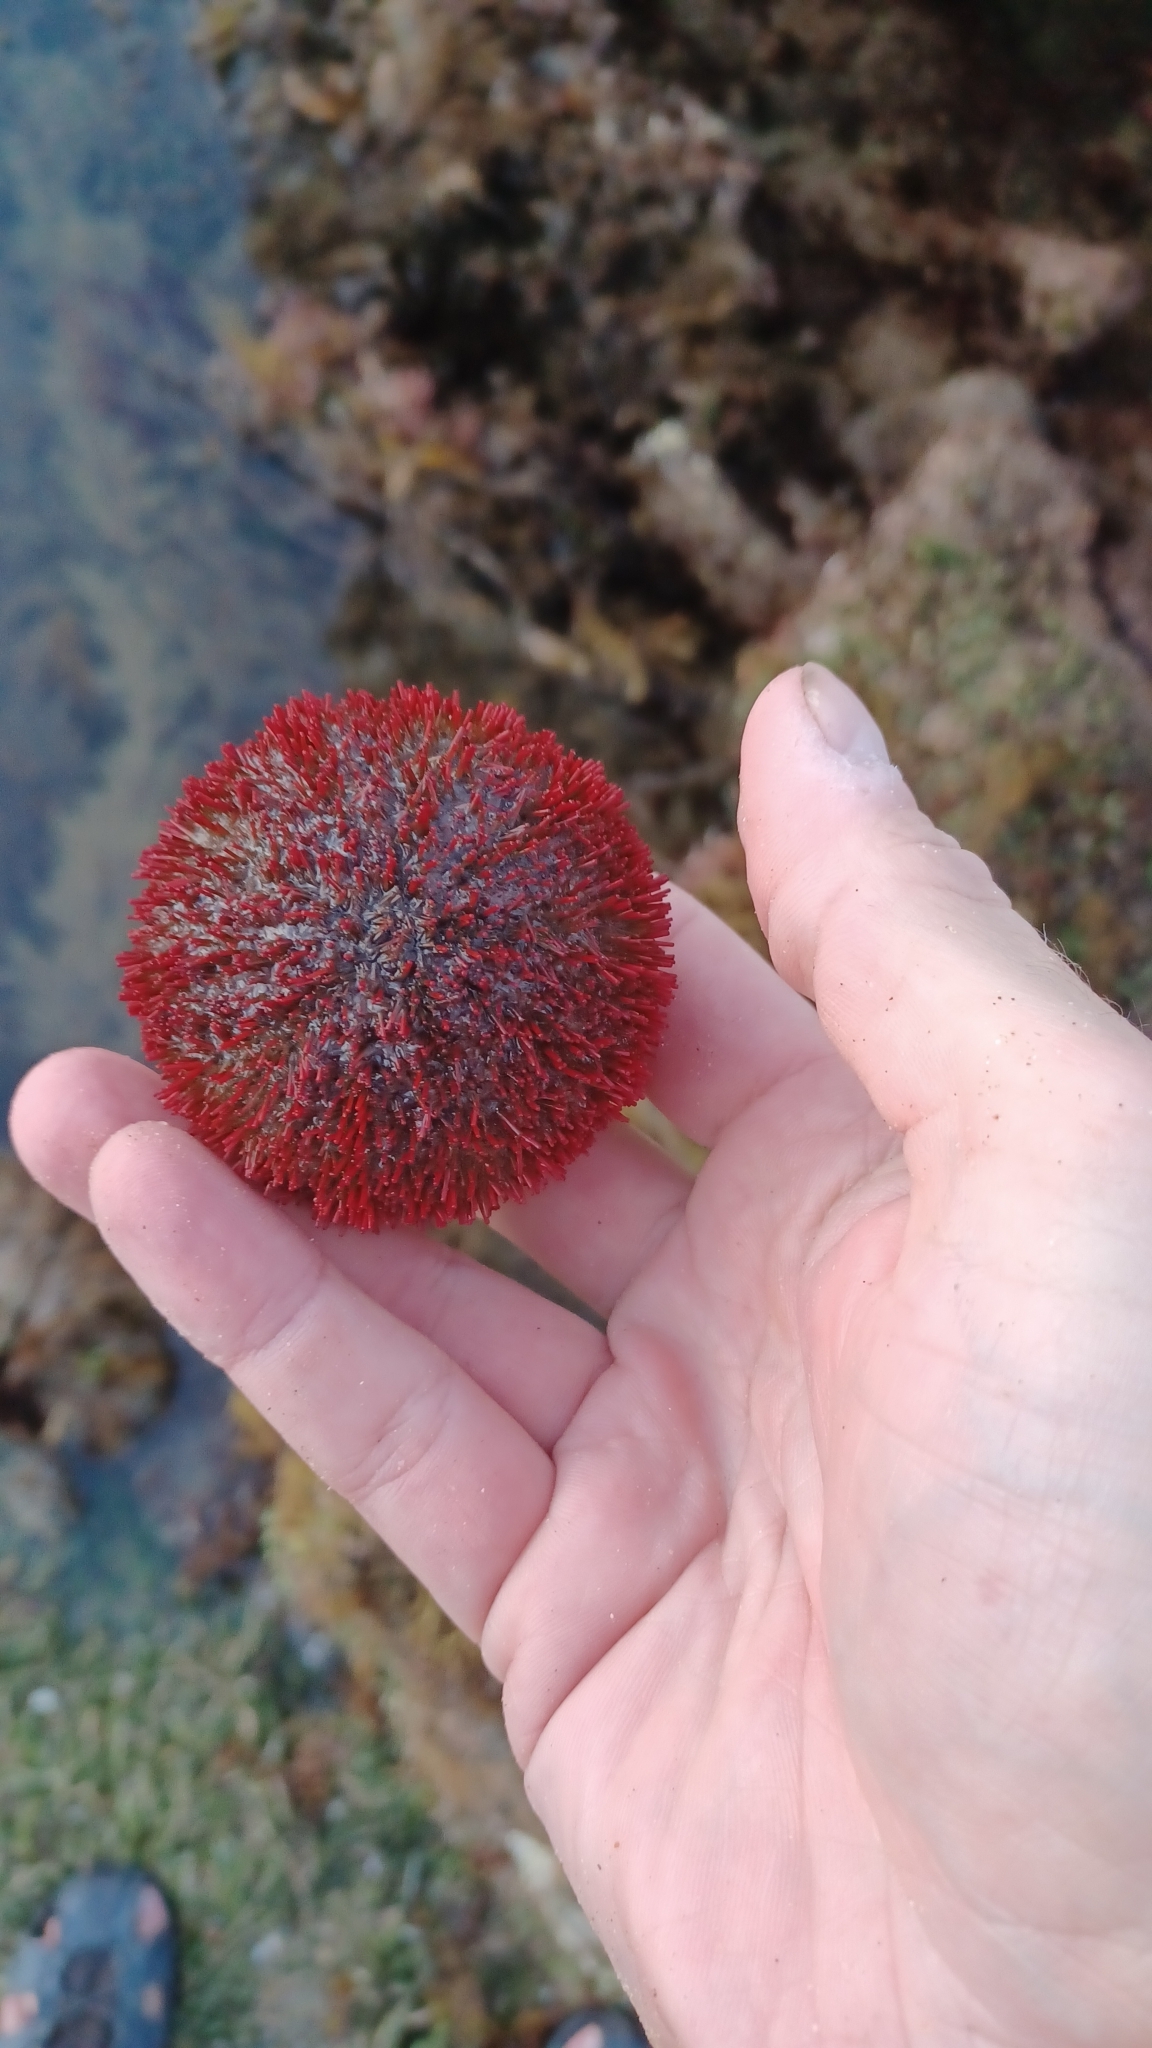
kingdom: Animalia
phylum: Echinodermata
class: Echinoidea
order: Camarodonta
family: Temnopleuridae
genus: Holopneustes
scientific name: Holopneustes porosissimus
